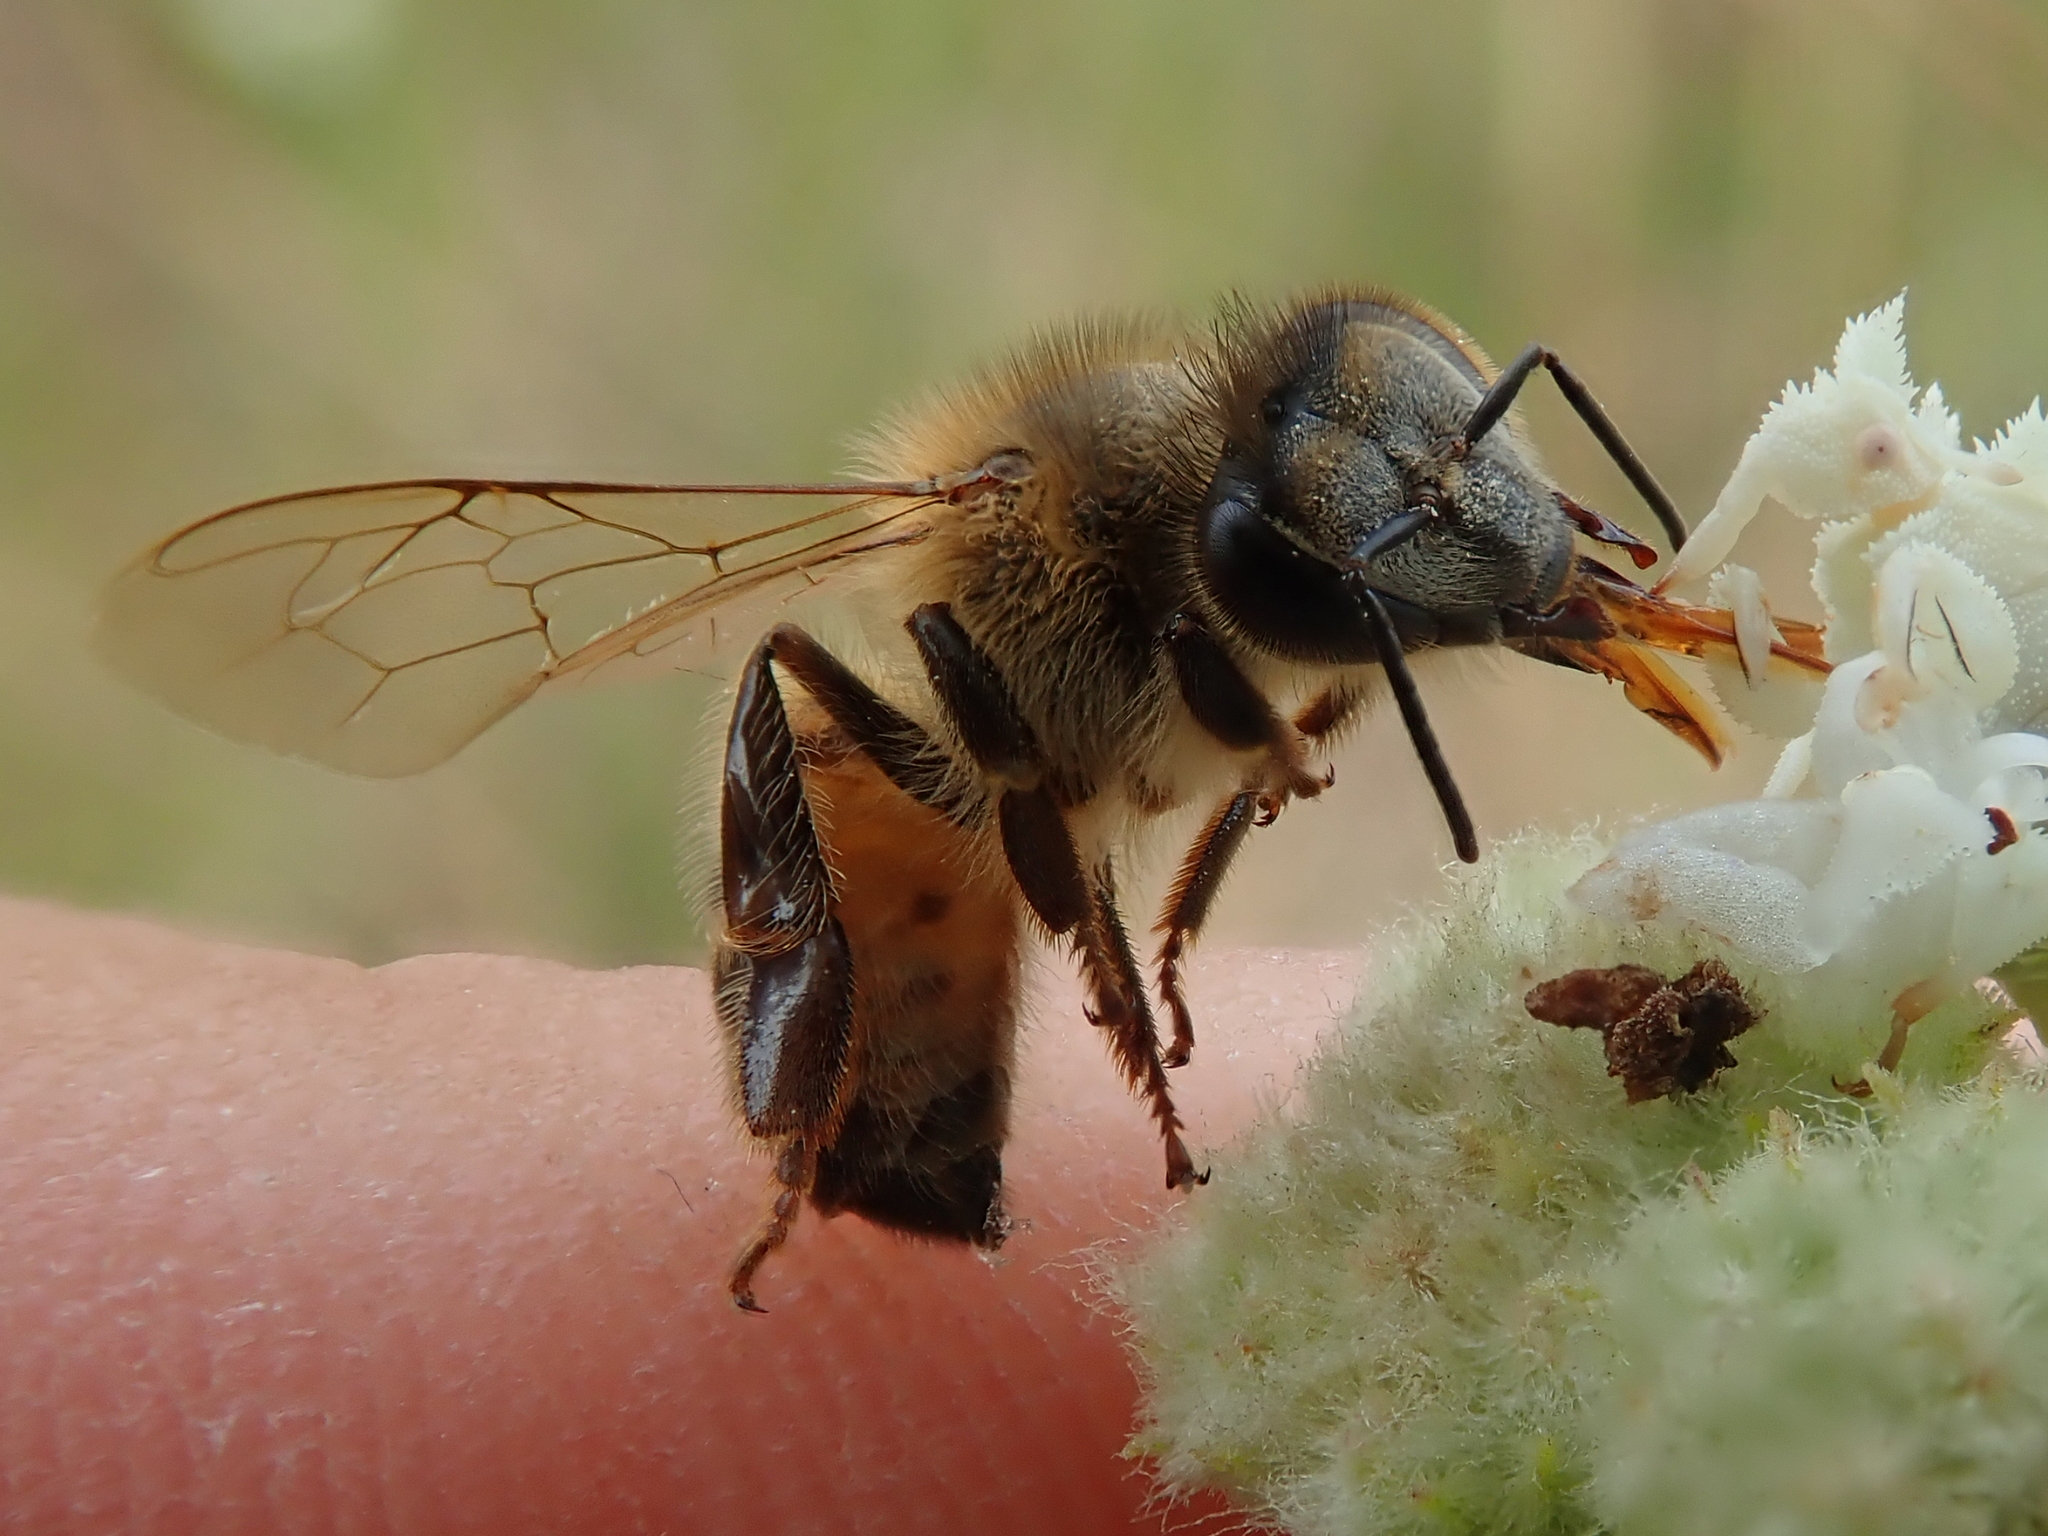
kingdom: Animalia
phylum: Arthropoda
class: Insecta
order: Hymenoptera
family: Apidae
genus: Apis
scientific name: Apis mellifera
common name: Honey bee
